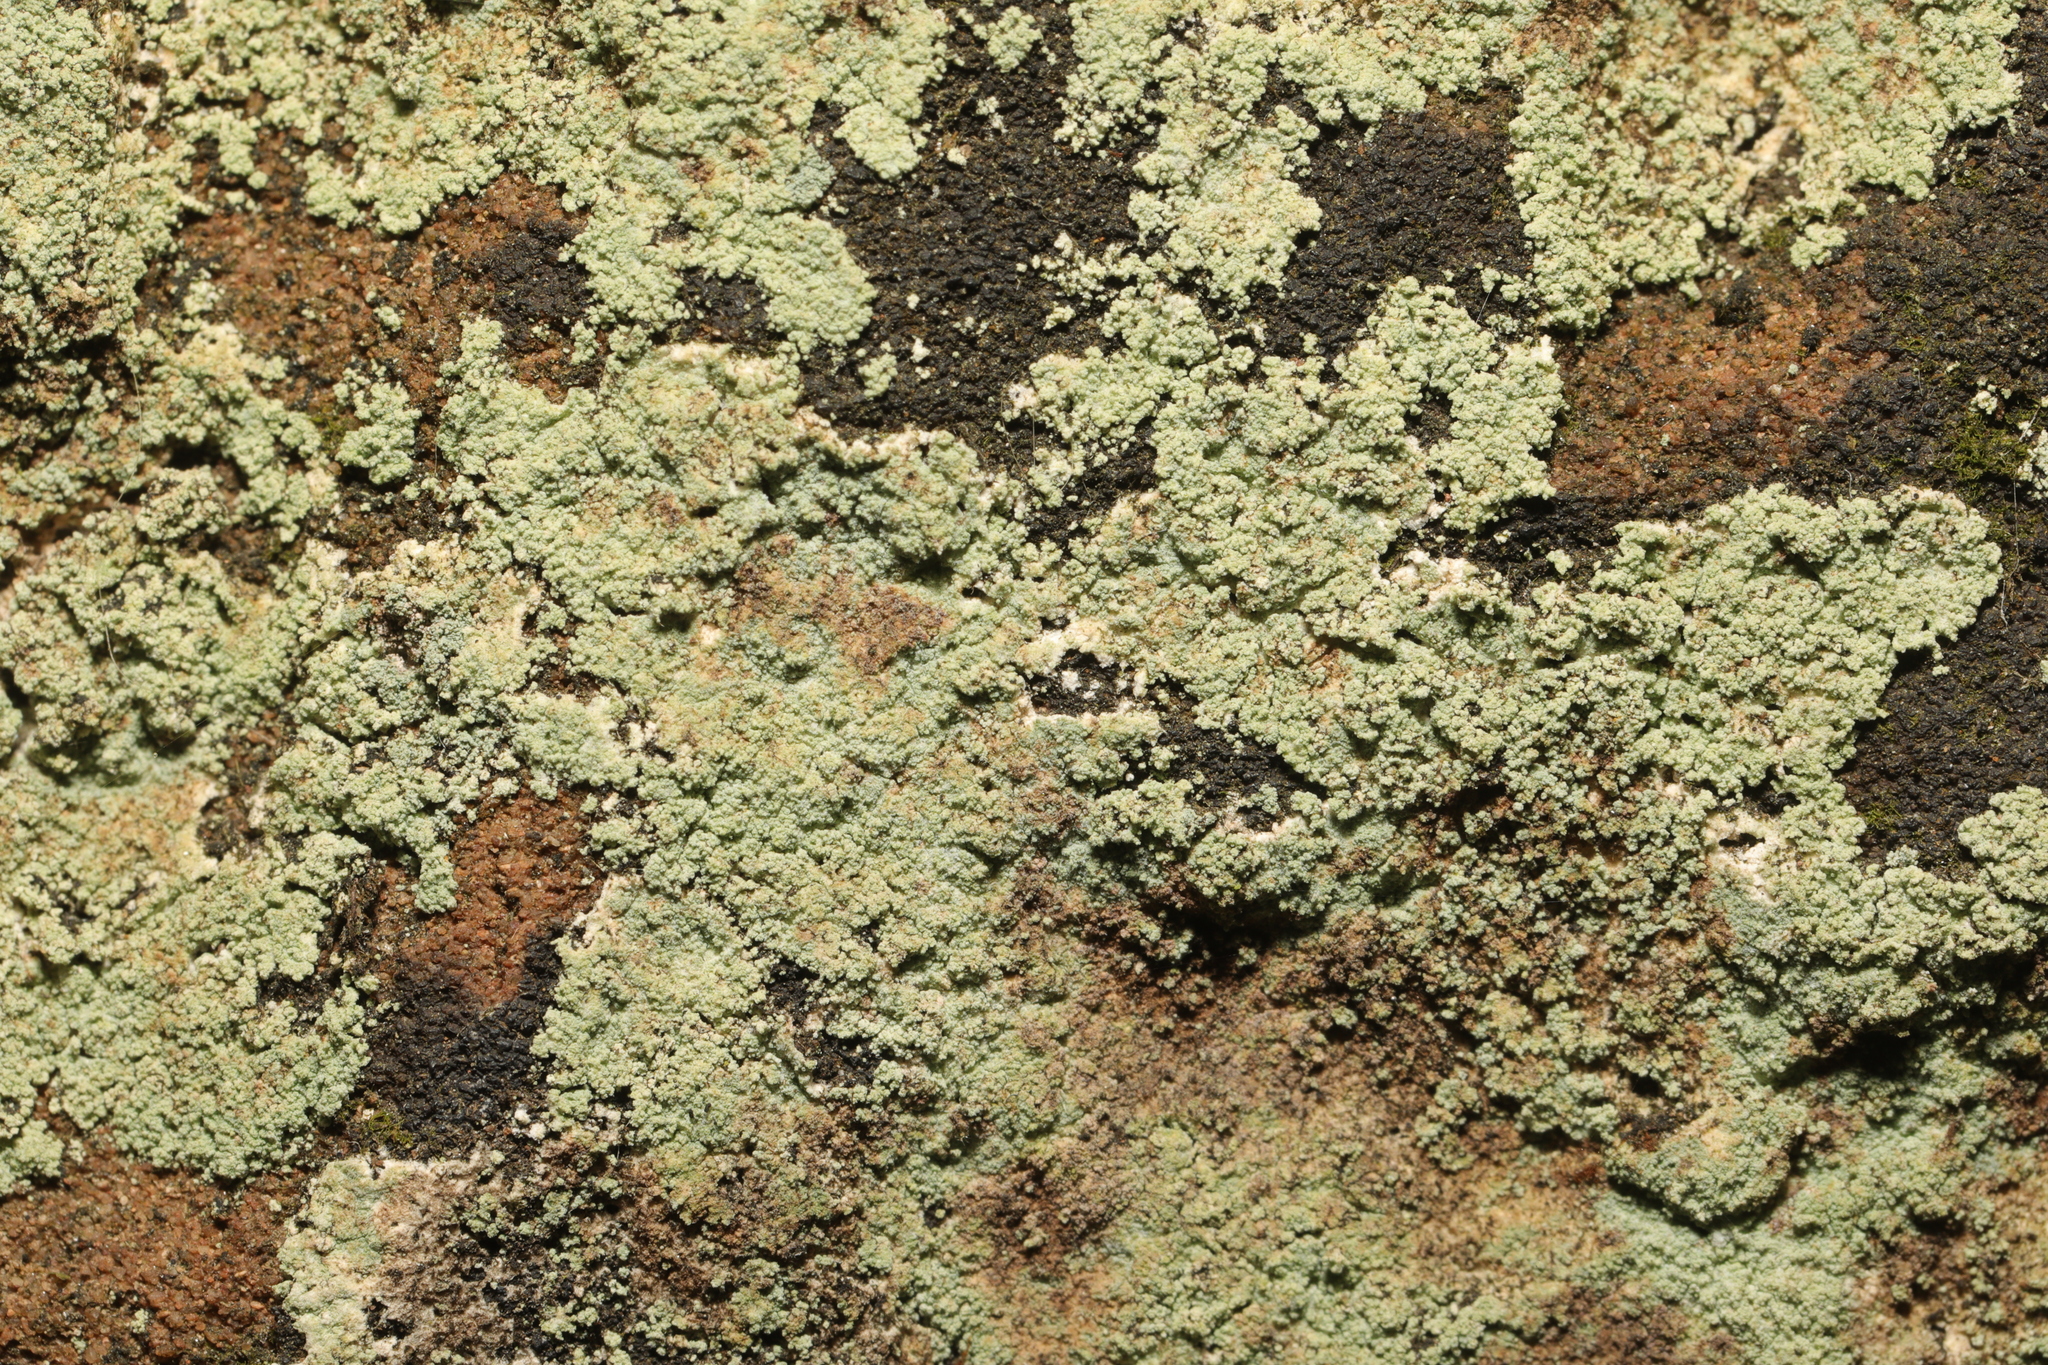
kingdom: Fungi
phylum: Ascomycota
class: Lecanoromycetes
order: Lecanorales
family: Stereocaulaceae
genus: Lepraria
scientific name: Lepraria
